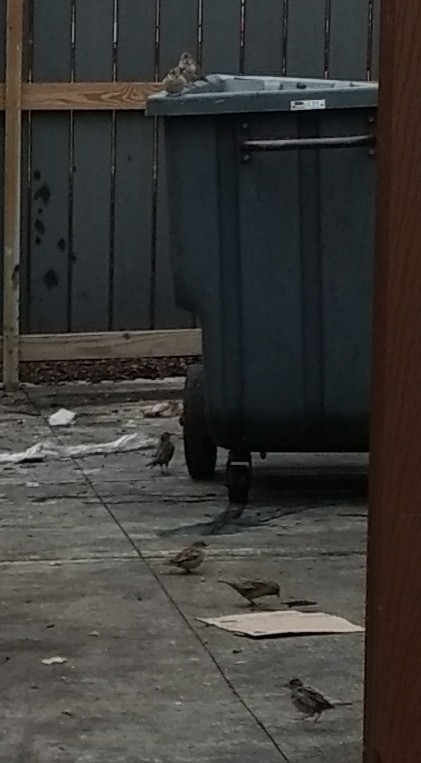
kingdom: Animalia
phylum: Chordata
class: Aves
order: Passeriformes
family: Passeridae
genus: Passer
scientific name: Passer domesticus
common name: House sparrow
